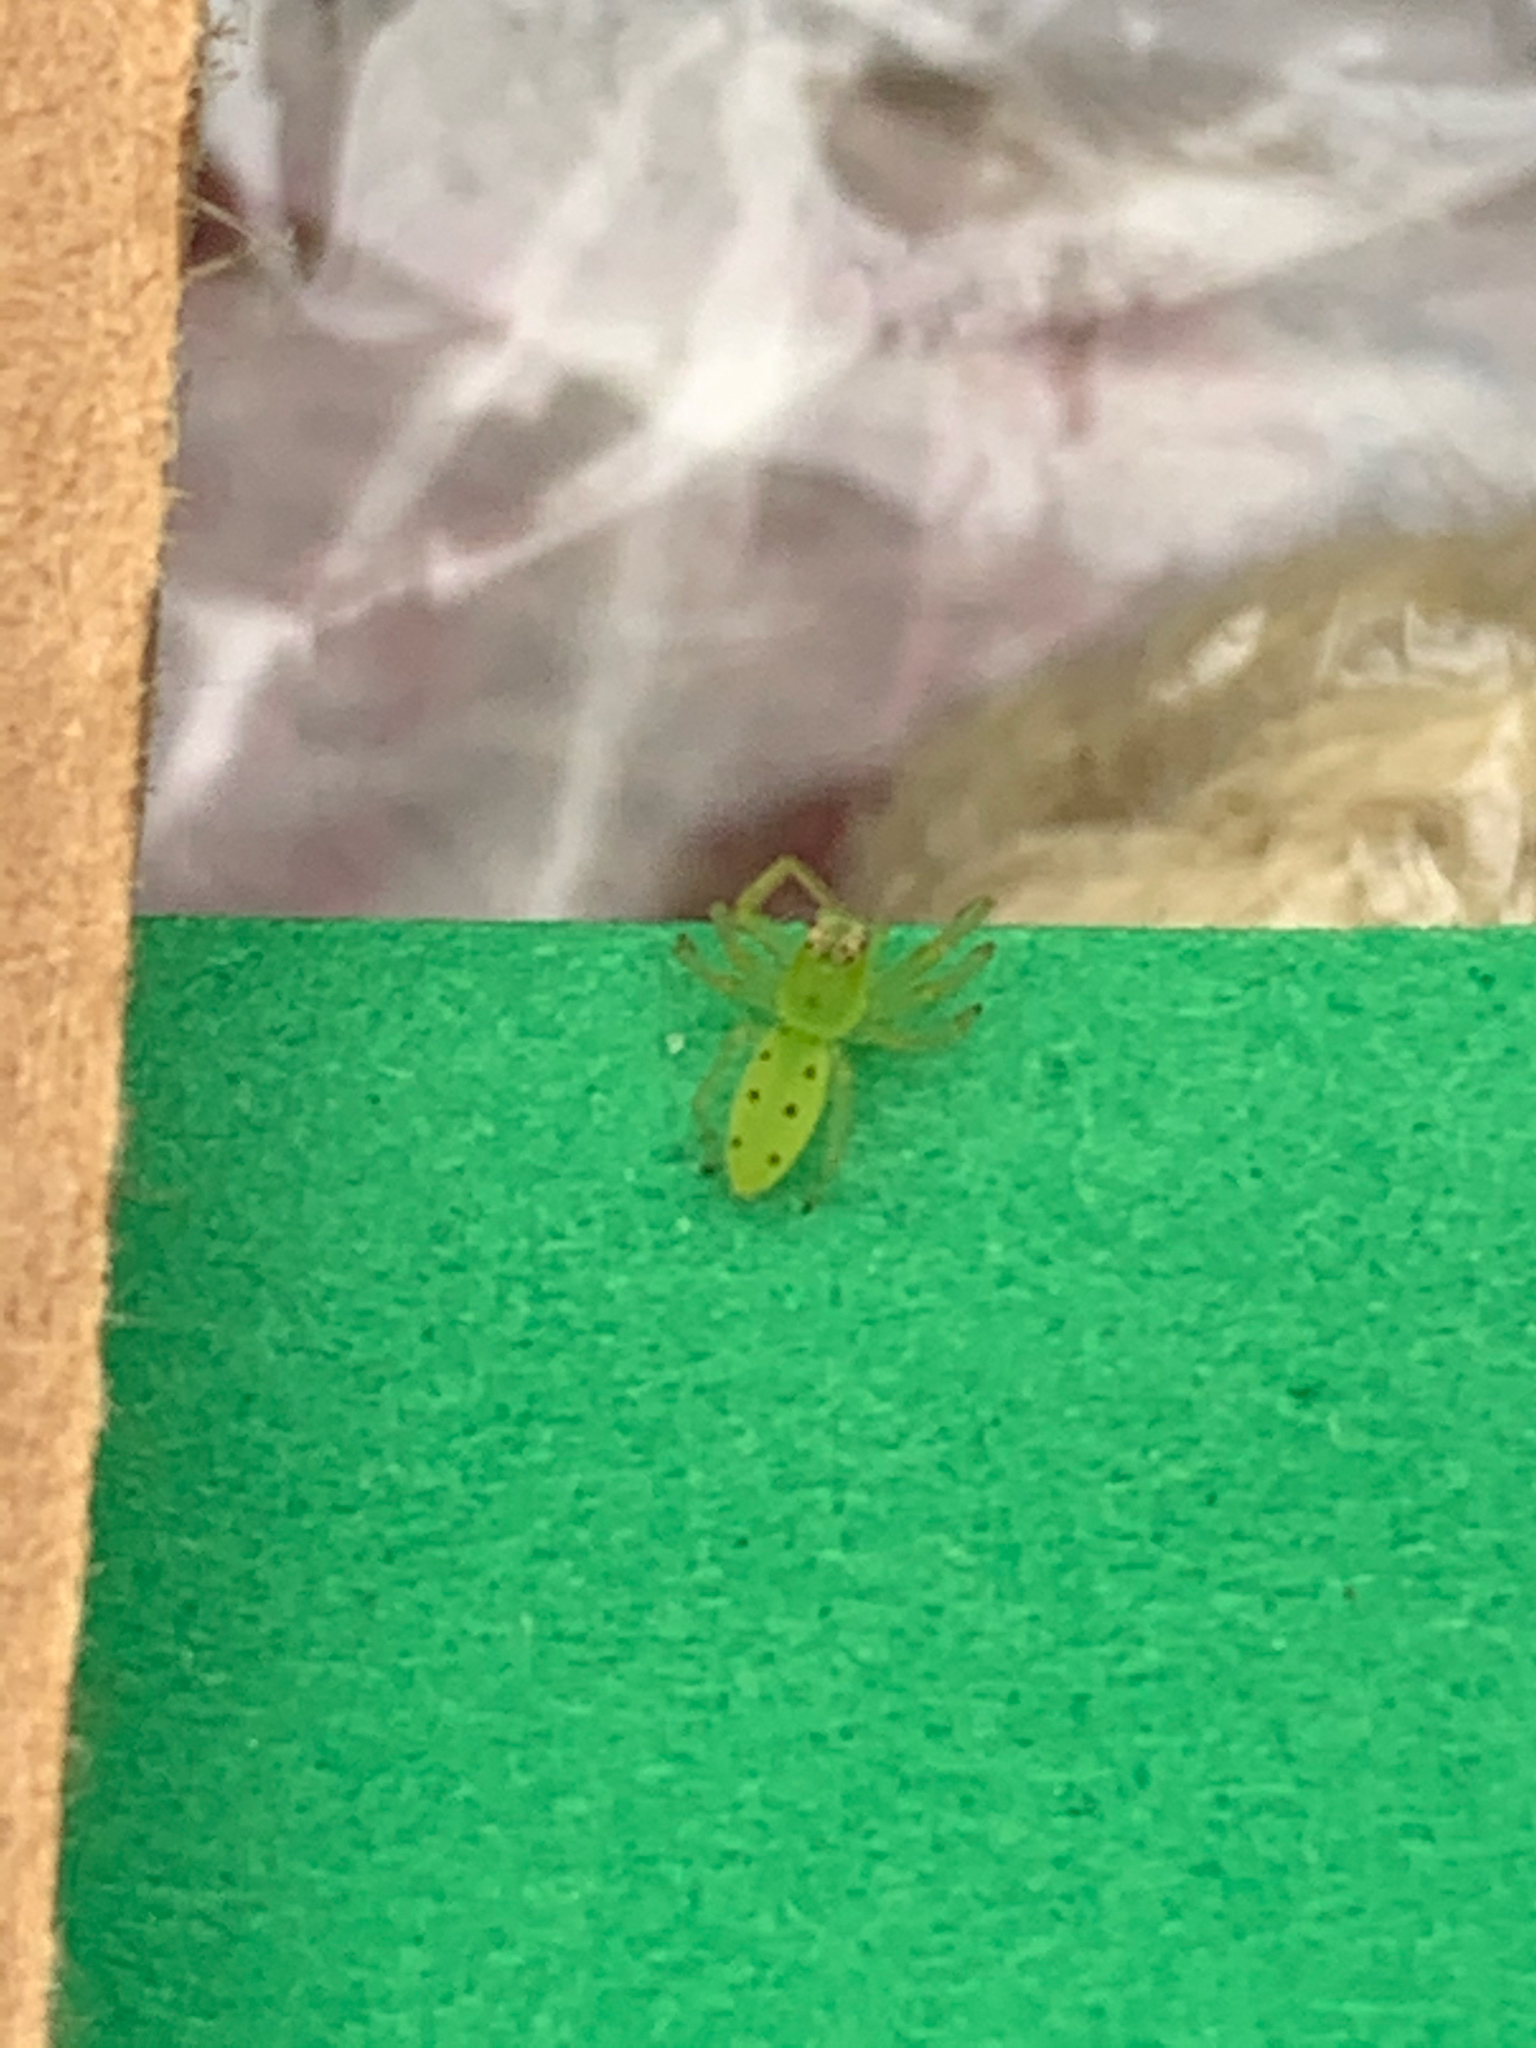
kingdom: Animalia
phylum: Arthropoda
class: Arachnida
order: Araneae
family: Salticidae
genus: Lyssomanes
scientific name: Lyssomanes viridis
